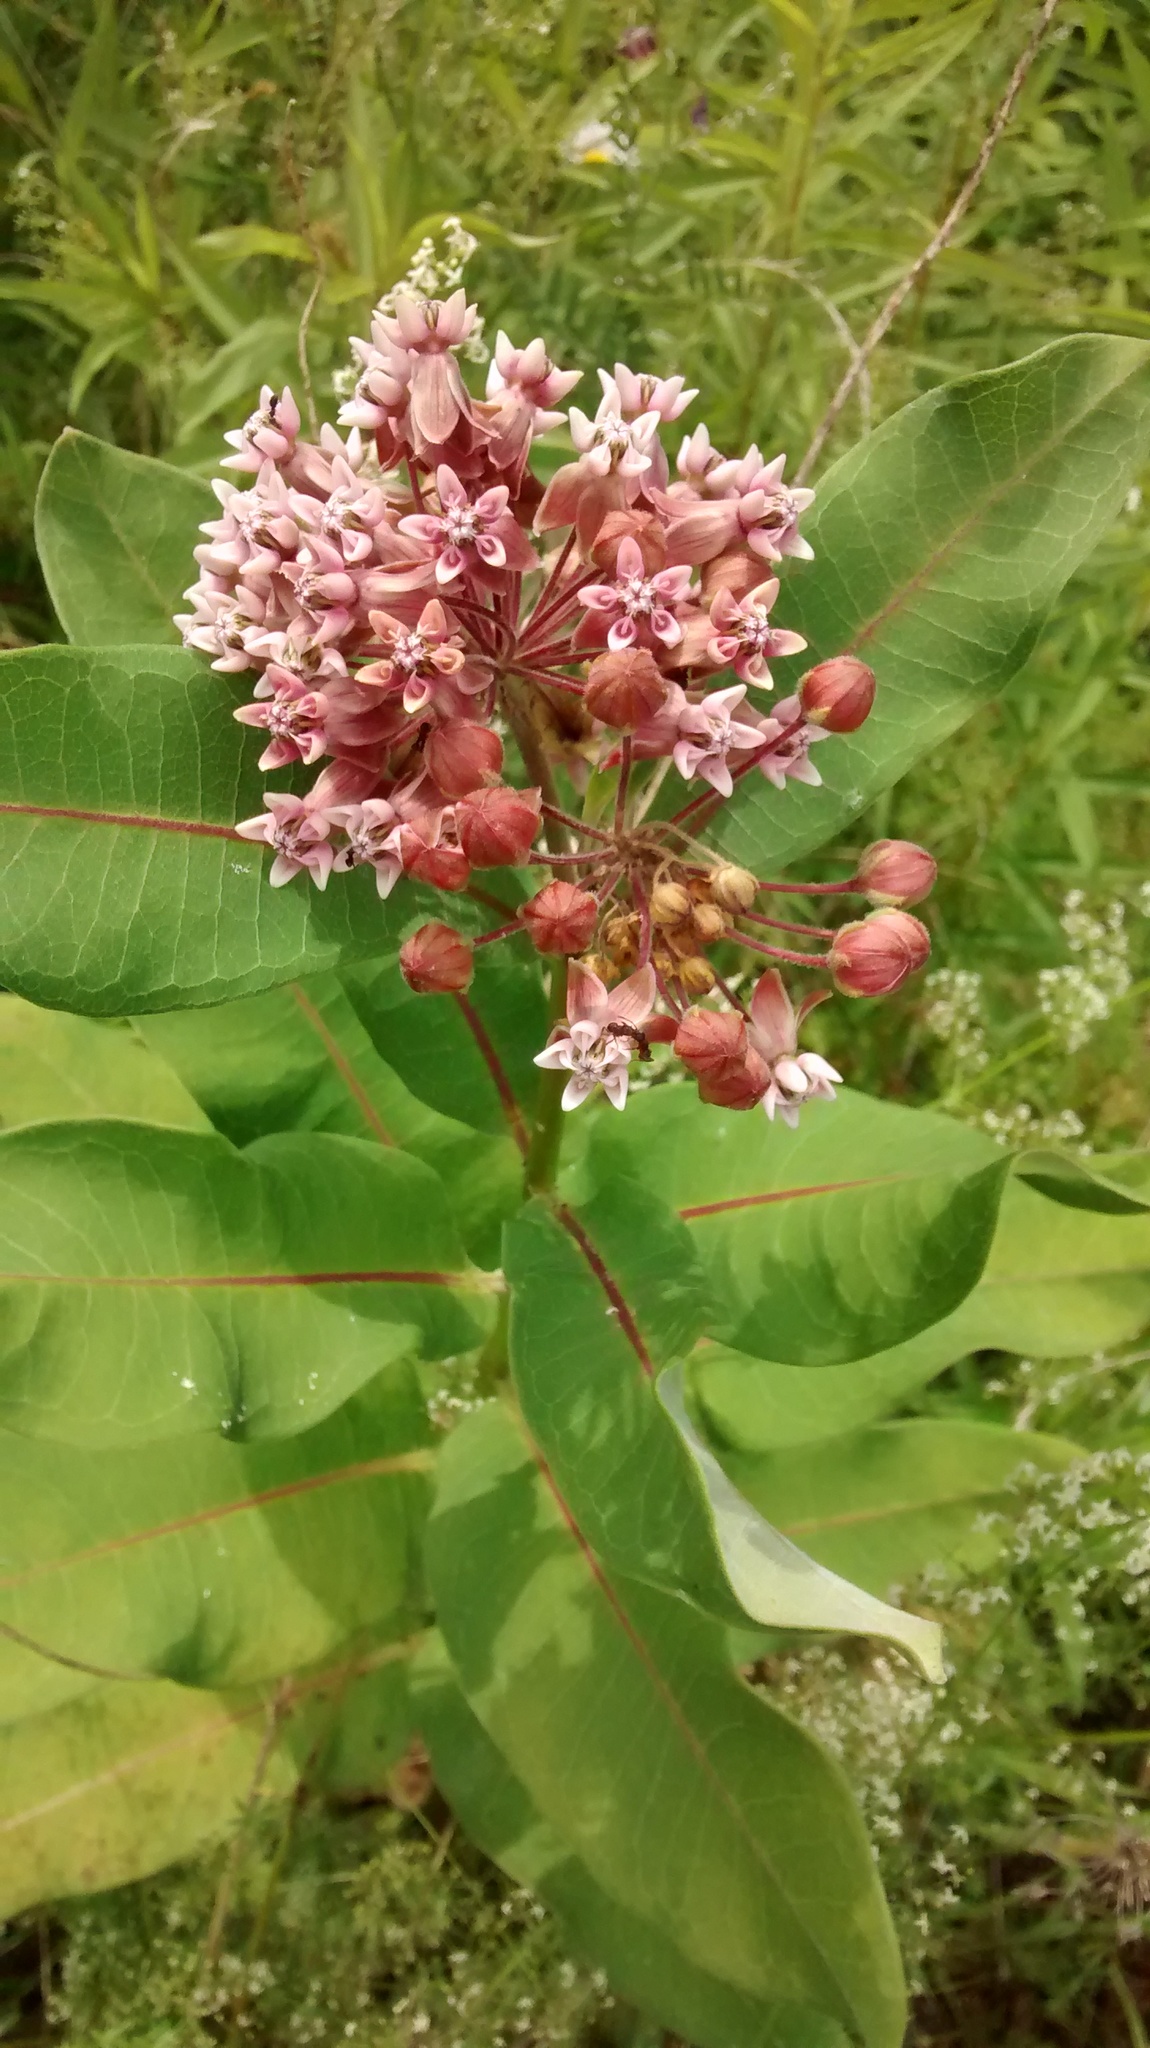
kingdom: Plantae
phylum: Tracheophyta
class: Magnoliopsida
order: Gentianales
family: Apocynaceae
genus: Asclepias
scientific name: Asclepias syriaca
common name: Common milkweed
